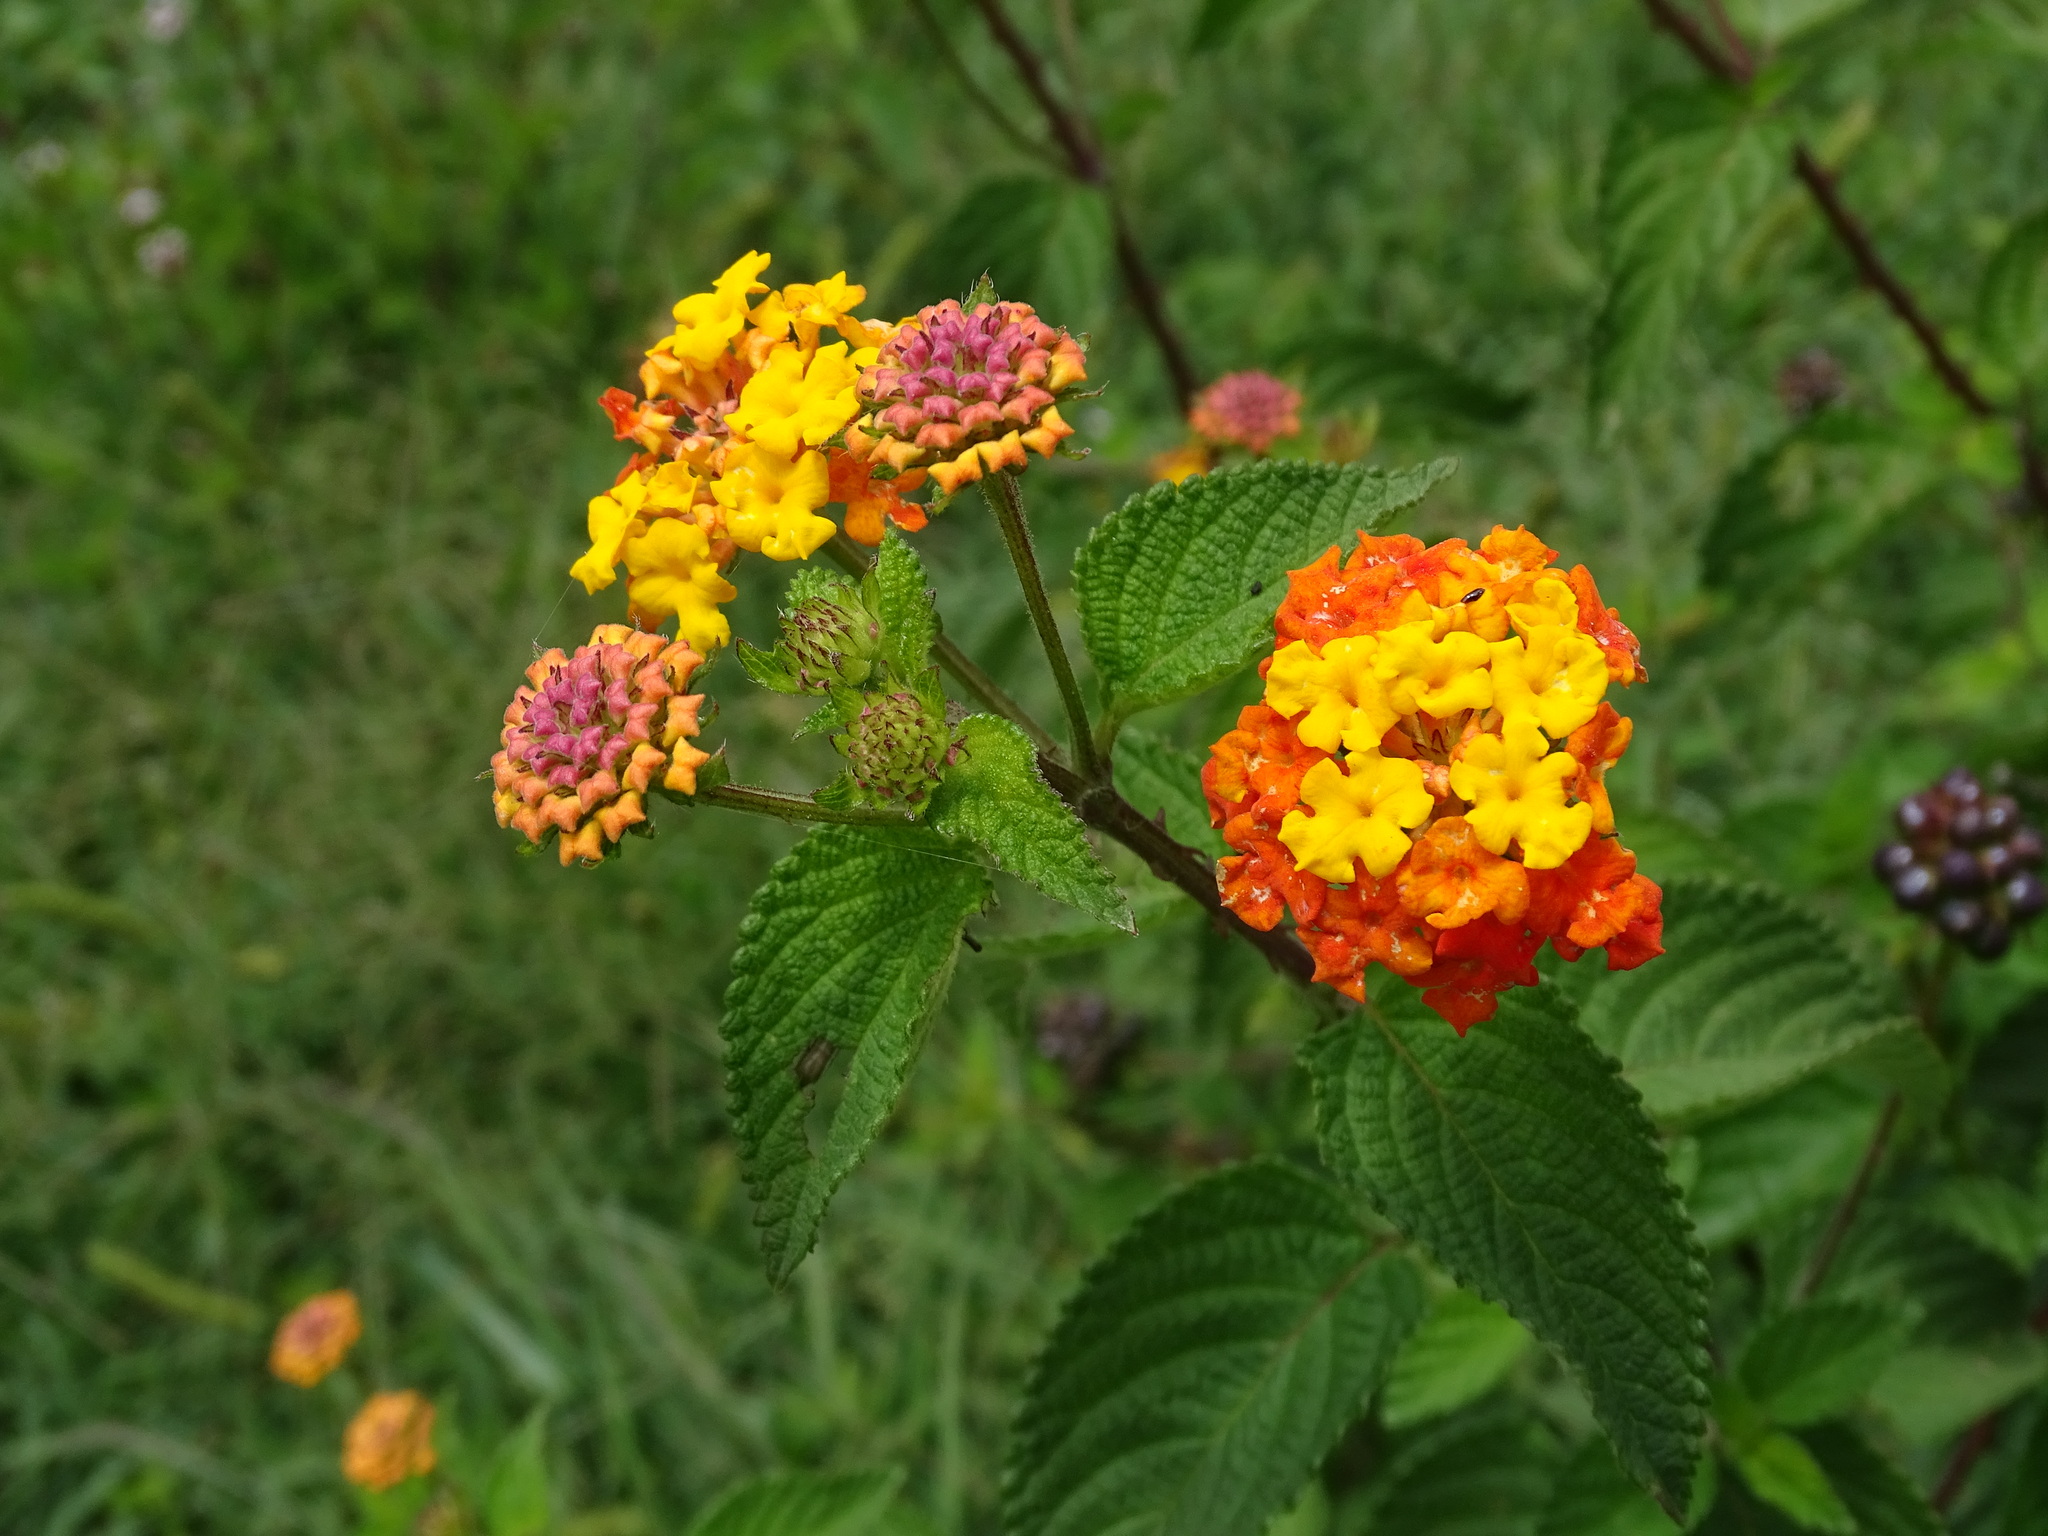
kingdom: Plantae
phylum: Tracheophyta
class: Magnoliopsida
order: Lamiales
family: Verbenaceae
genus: Lantana
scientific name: Lantana camara
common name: Lantana
